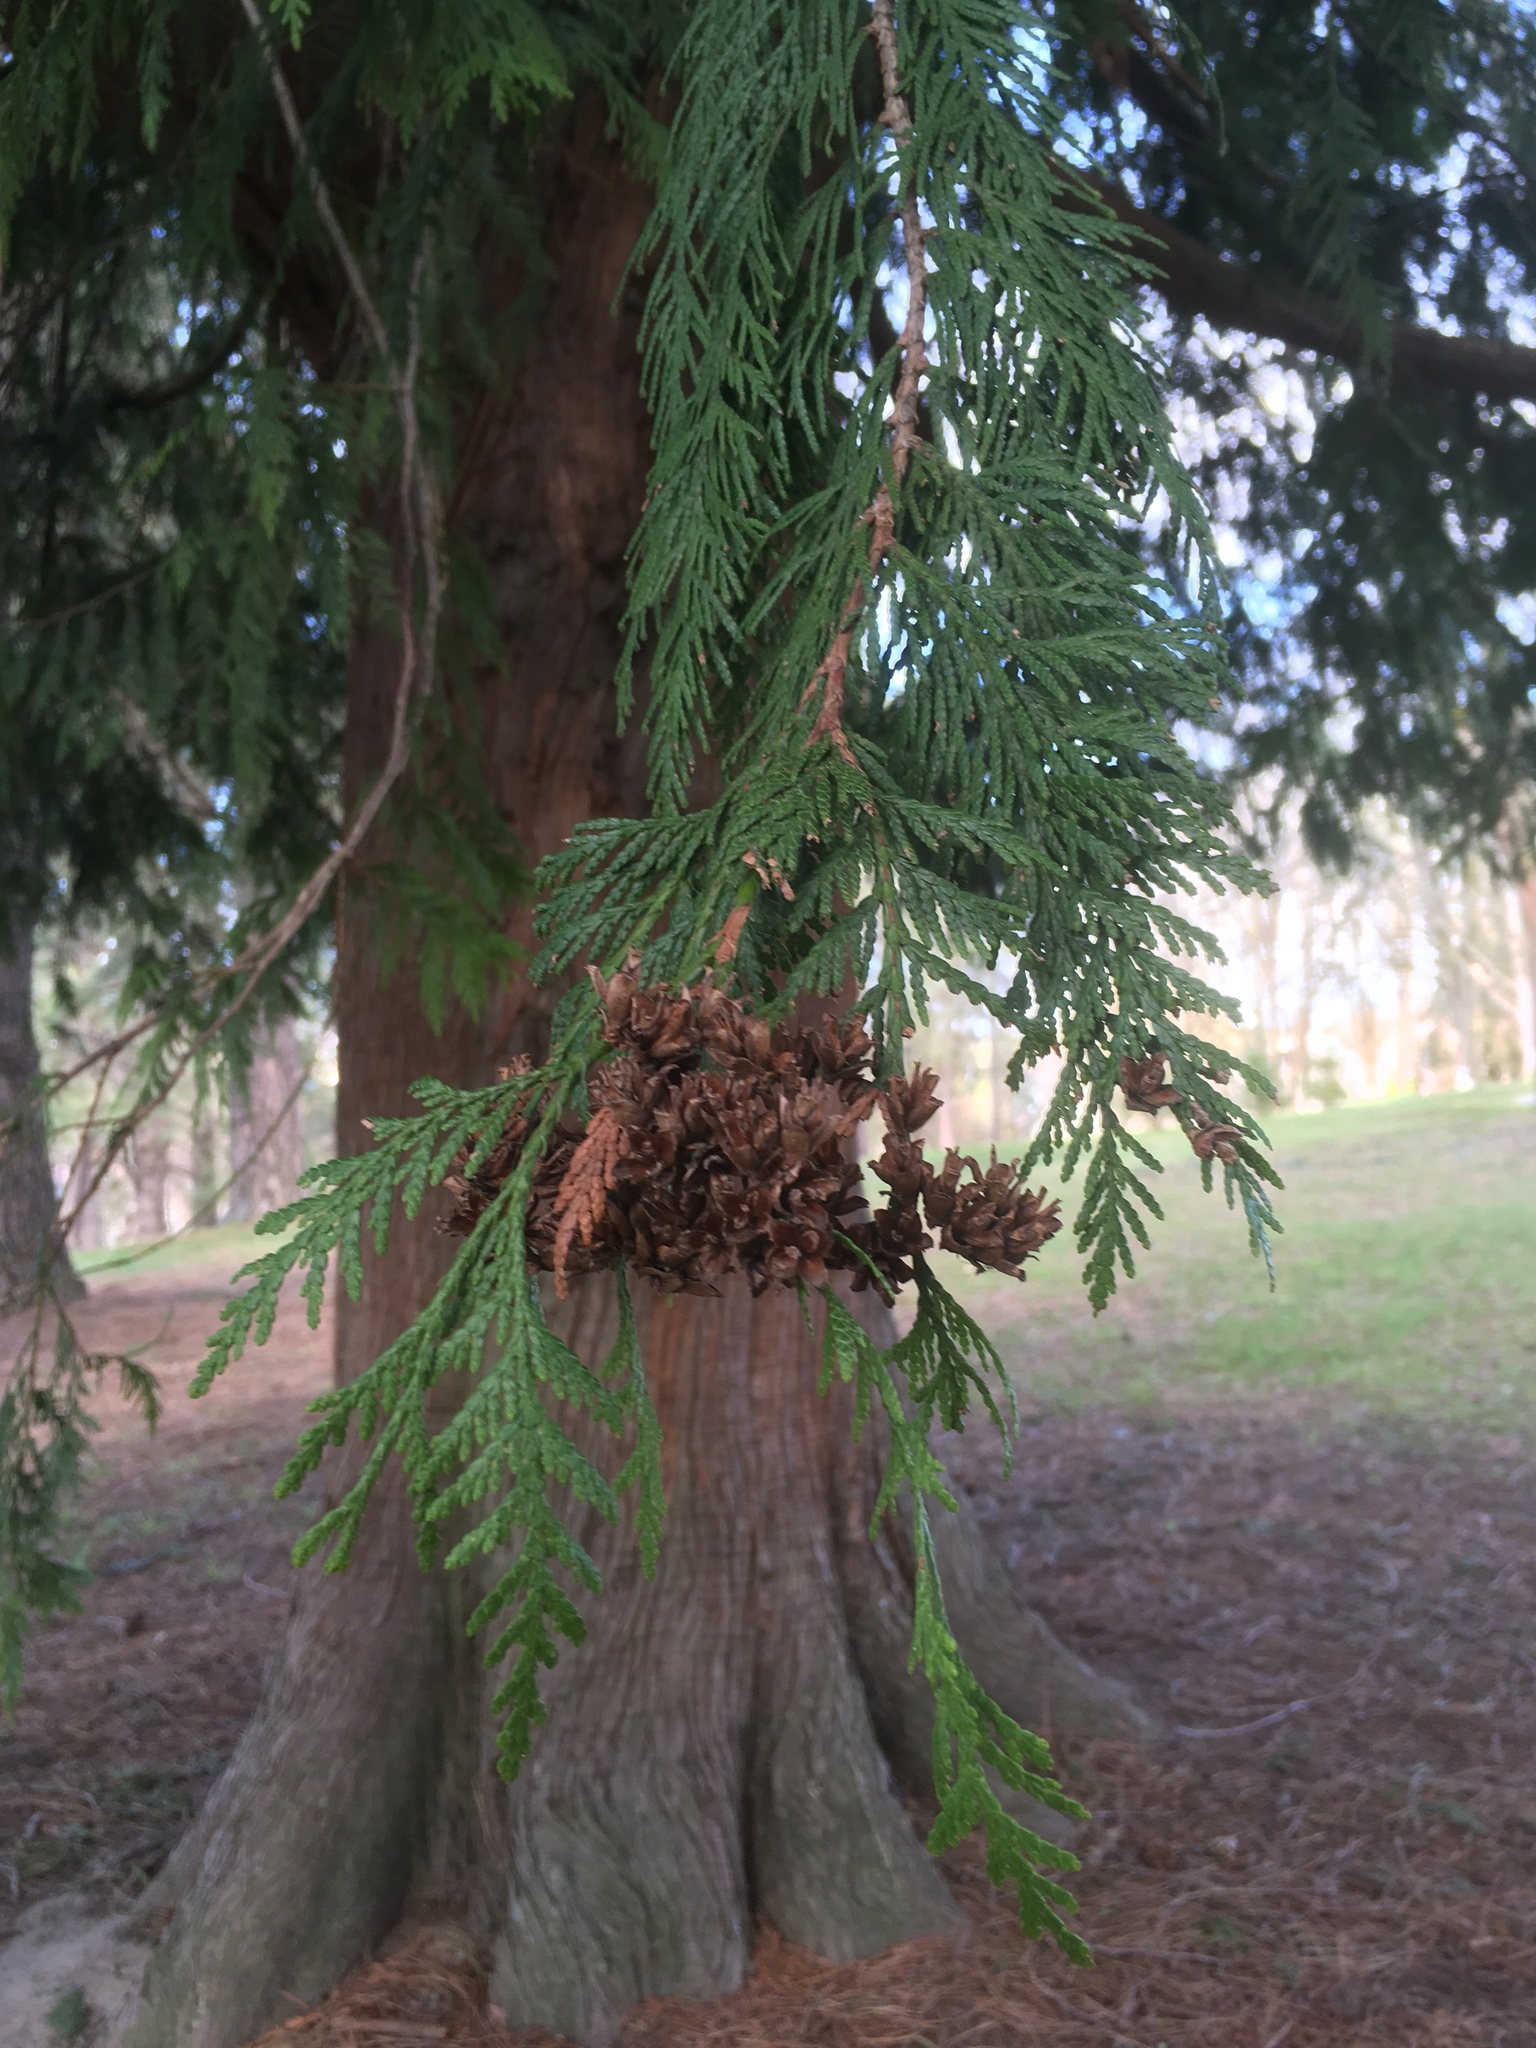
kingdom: Plantae
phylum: Tracheophyta
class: Pinopsida
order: Pinales
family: Cupressaceae
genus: Thuja
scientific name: Thuja plicata
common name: Western red-cedar
